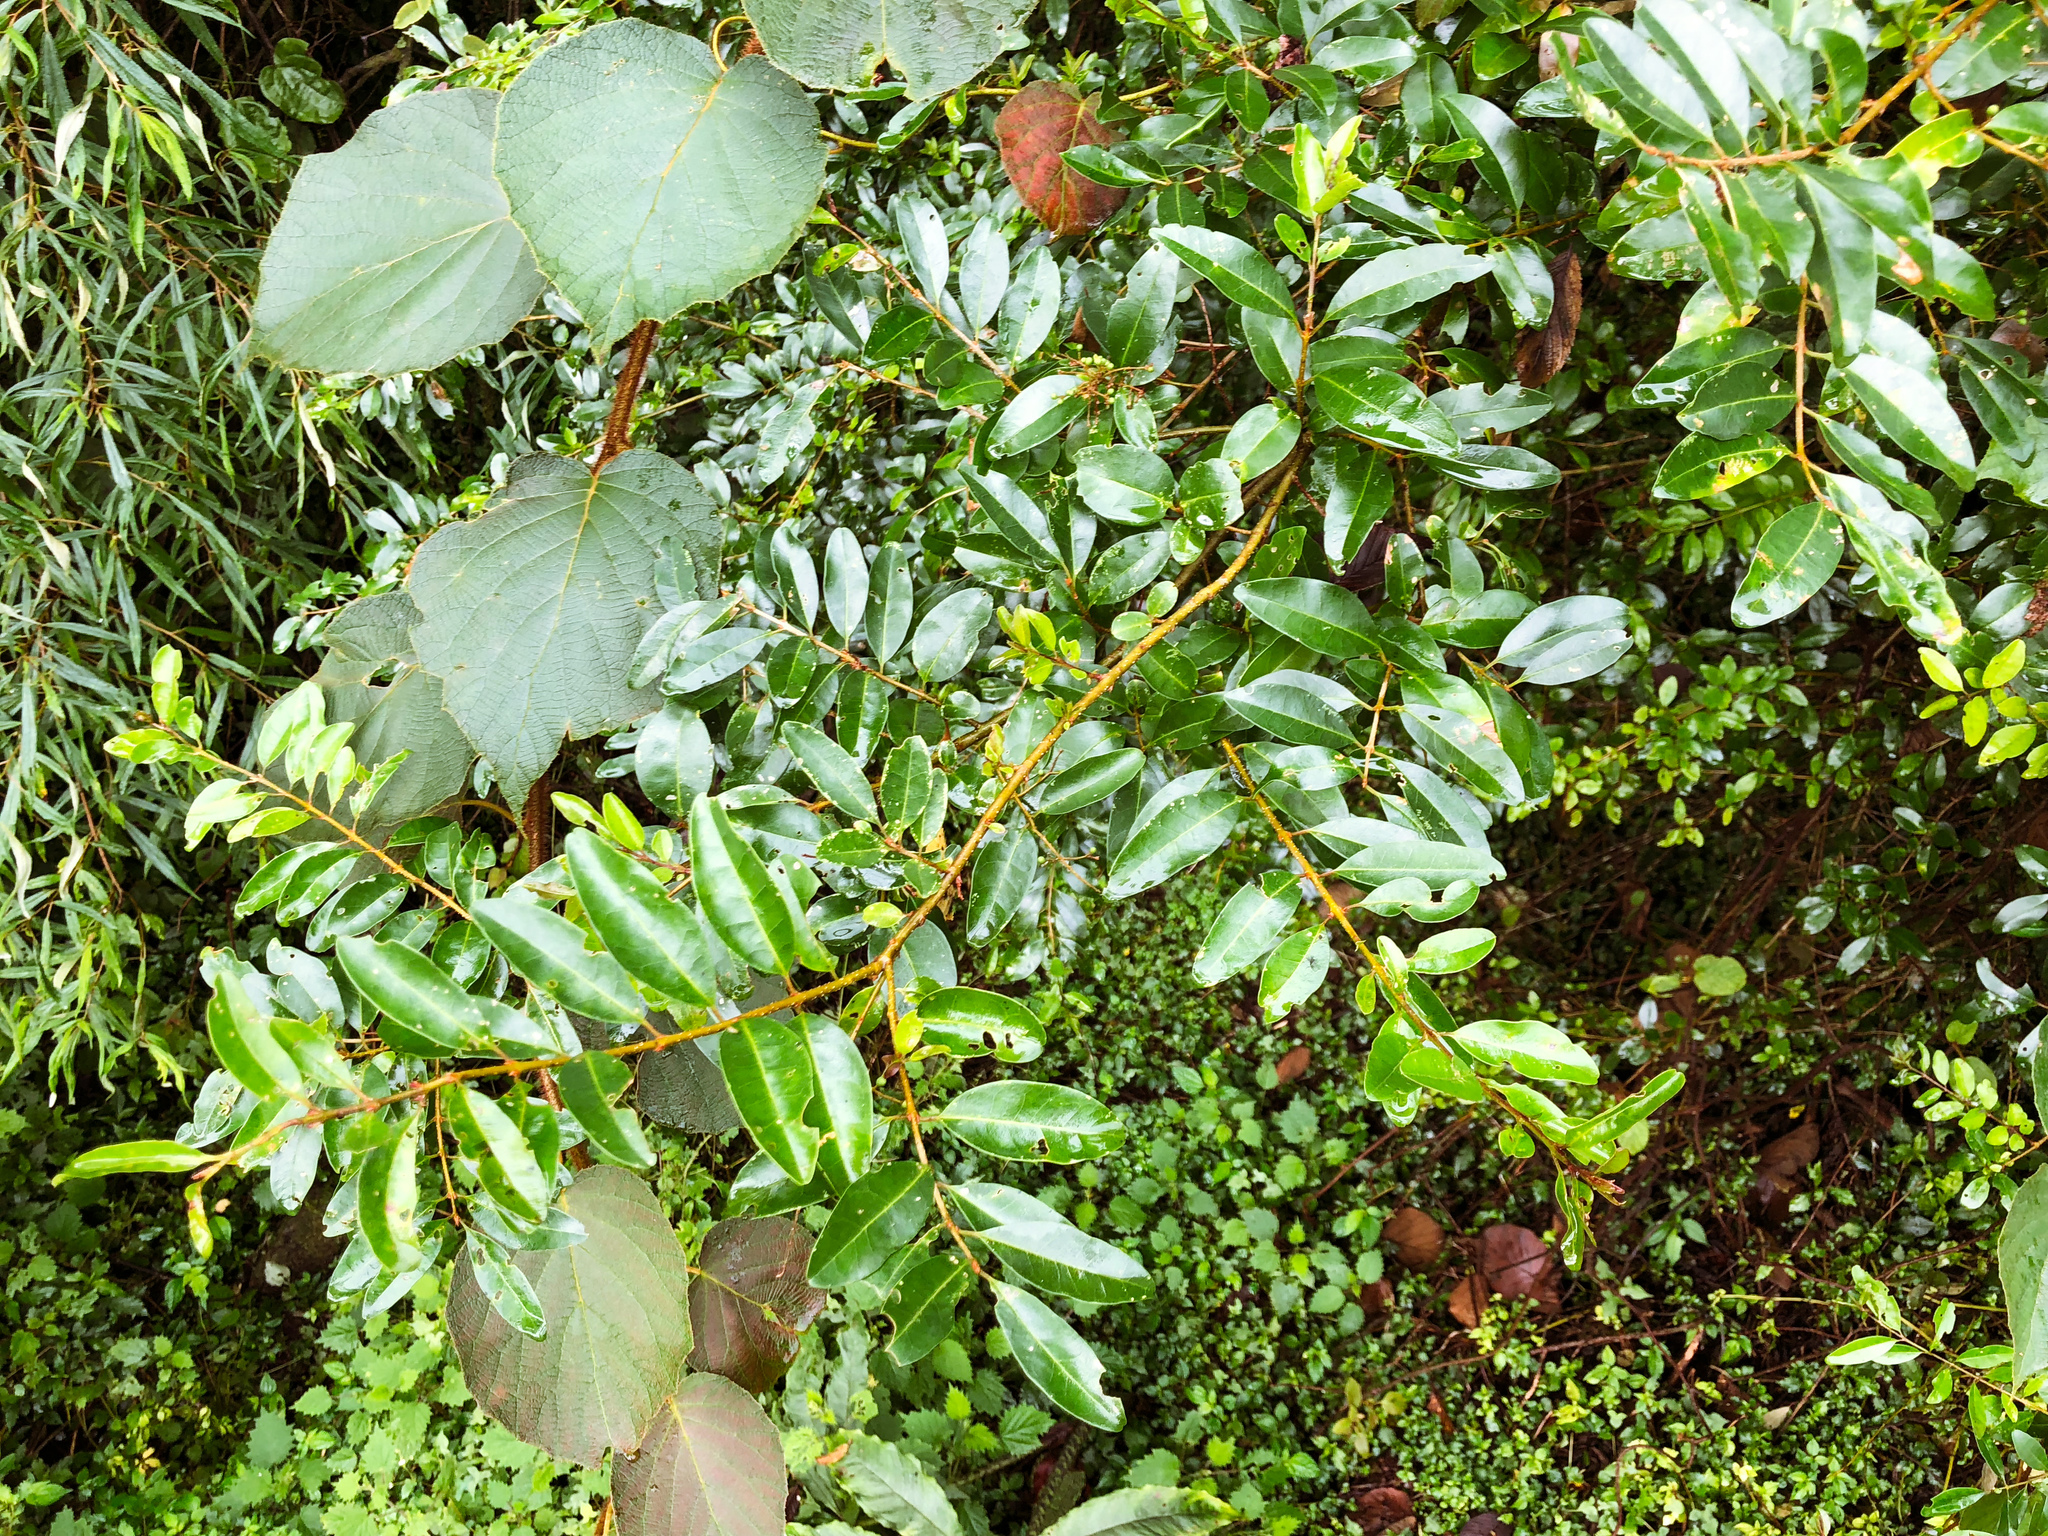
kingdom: Plantae
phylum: Tracheophyta
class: Magnoliopsida
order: Lamiales
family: Oleaceae
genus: Ligustrum
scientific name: Ligustrum sinense
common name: Chinese privet
